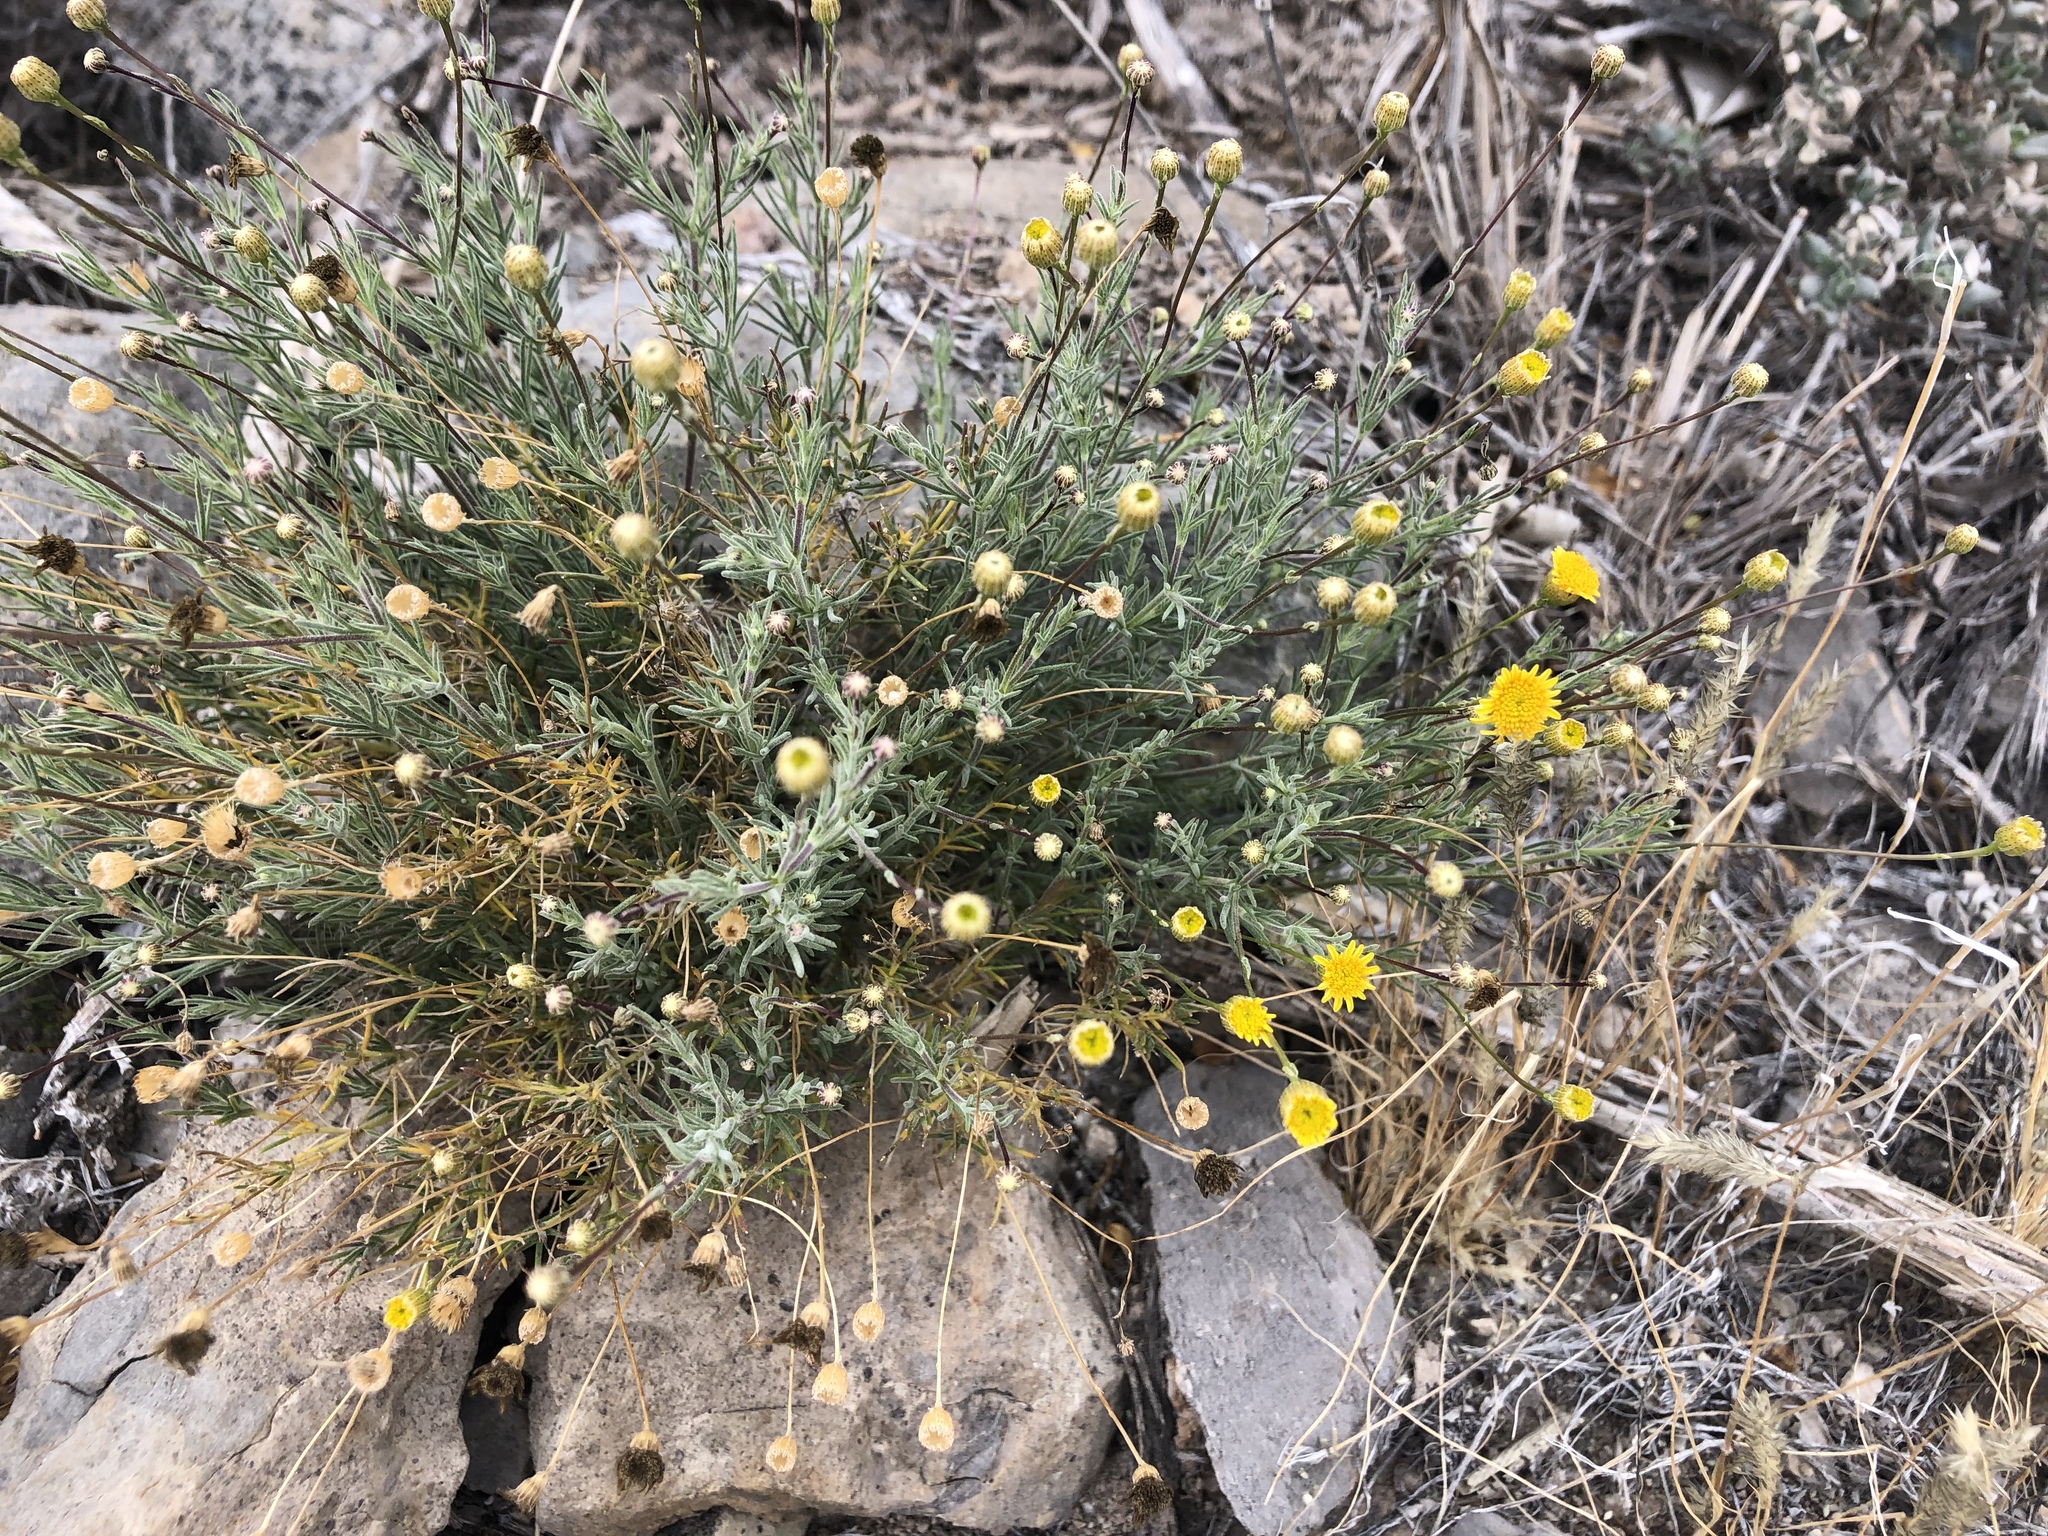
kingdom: Plantae
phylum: Tracheophyta
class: Magnoliopsida
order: Asterales
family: Asteraceae
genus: Thymophylla
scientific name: Thymophylla pentachaeta
